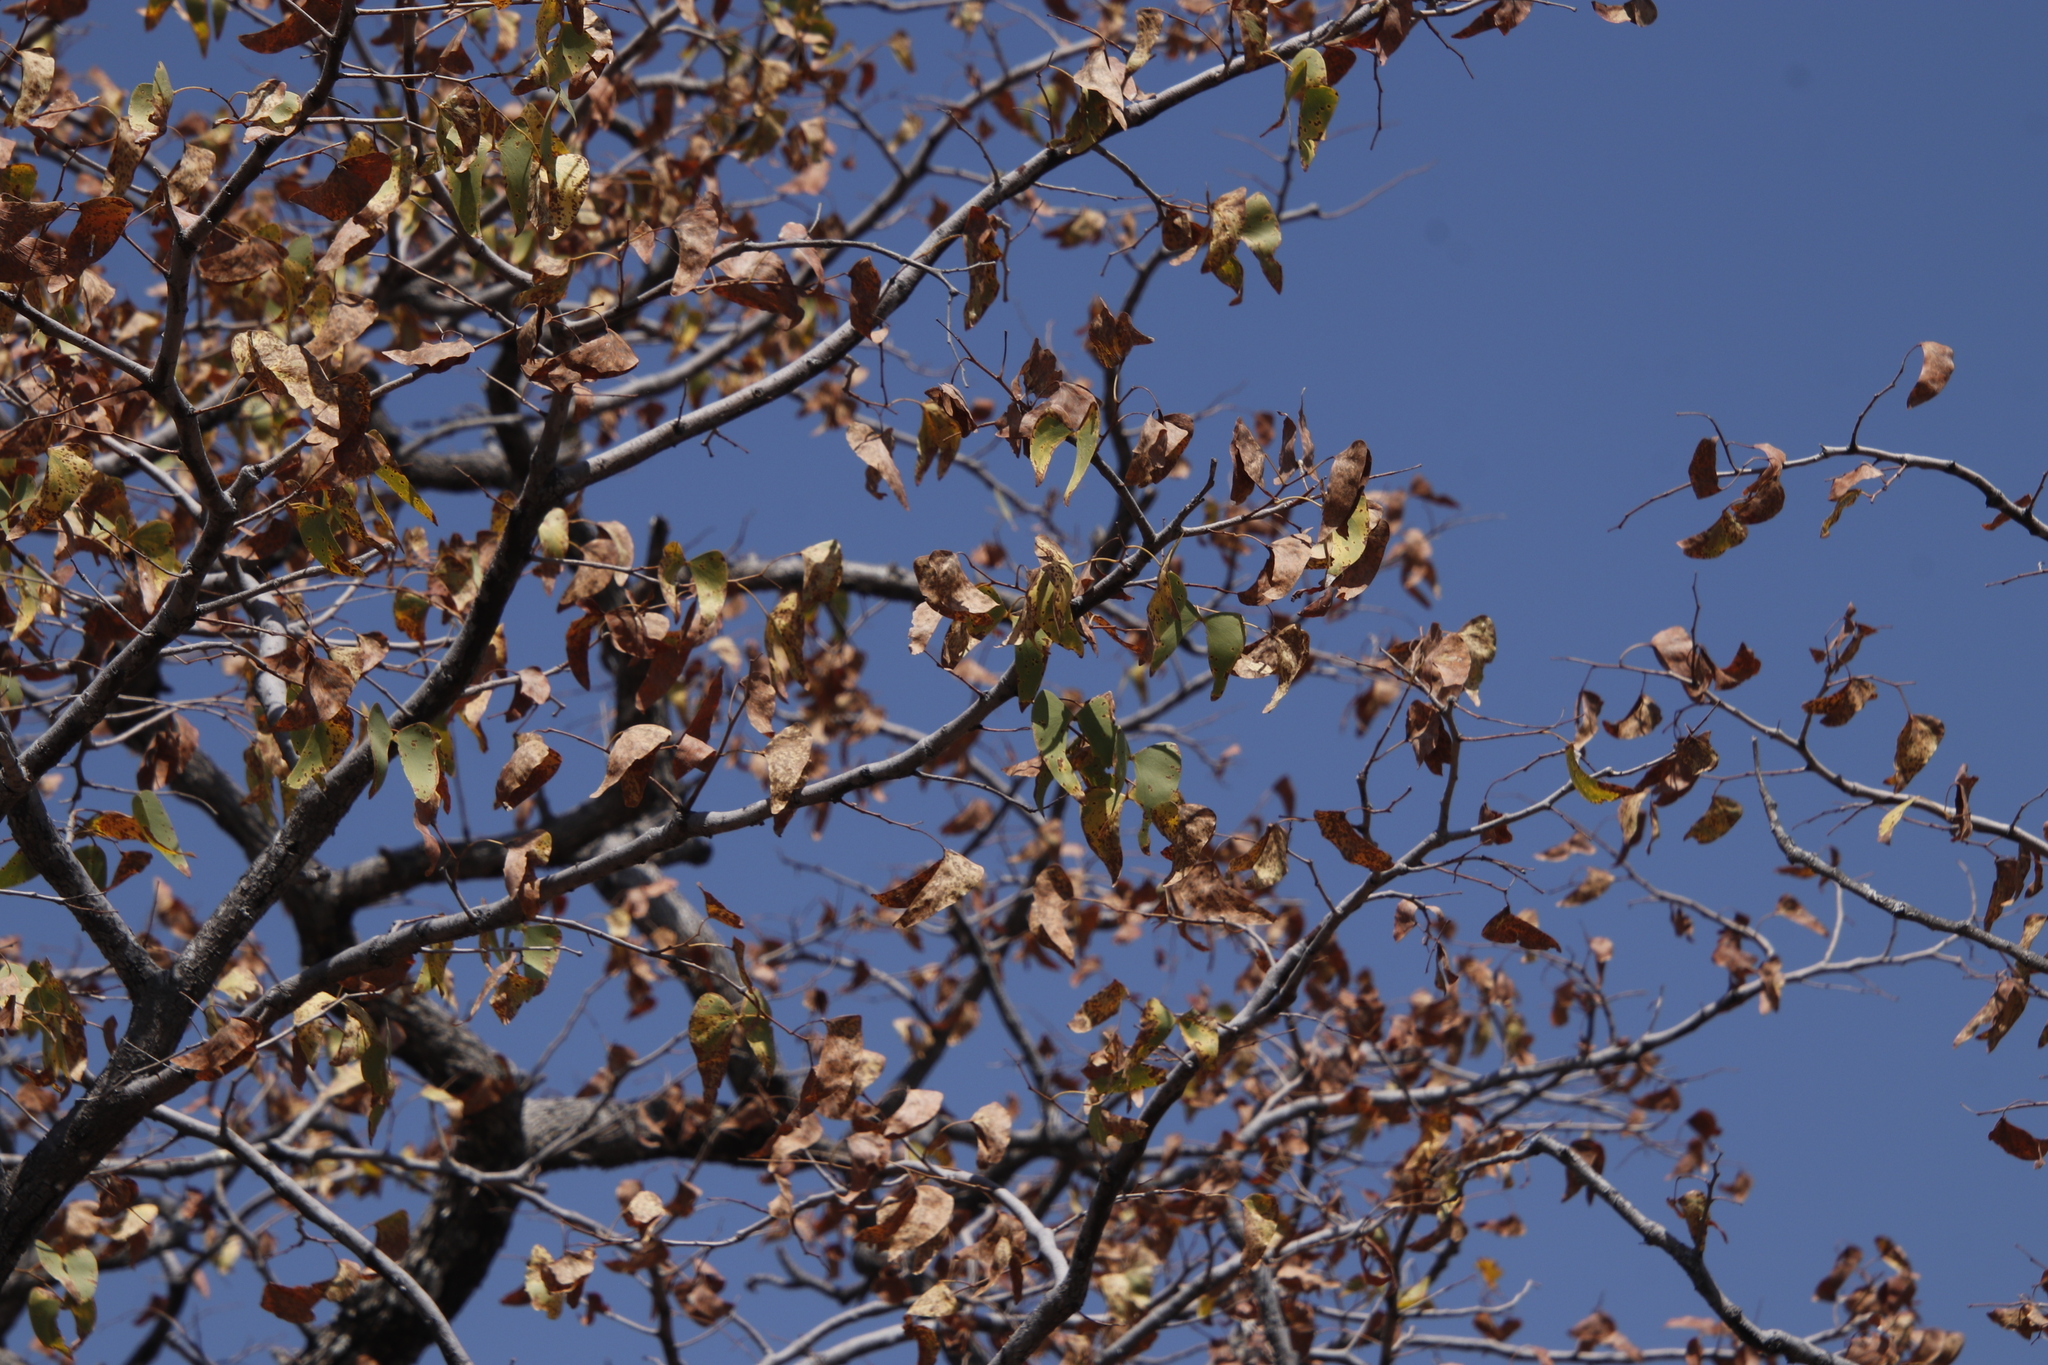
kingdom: Plantae
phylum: Tracheophyta
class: Magnoliopsida
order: Fabales
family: Fabaceae
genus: Colophospermum
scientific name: Colophospermum mopane
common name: Mopane
